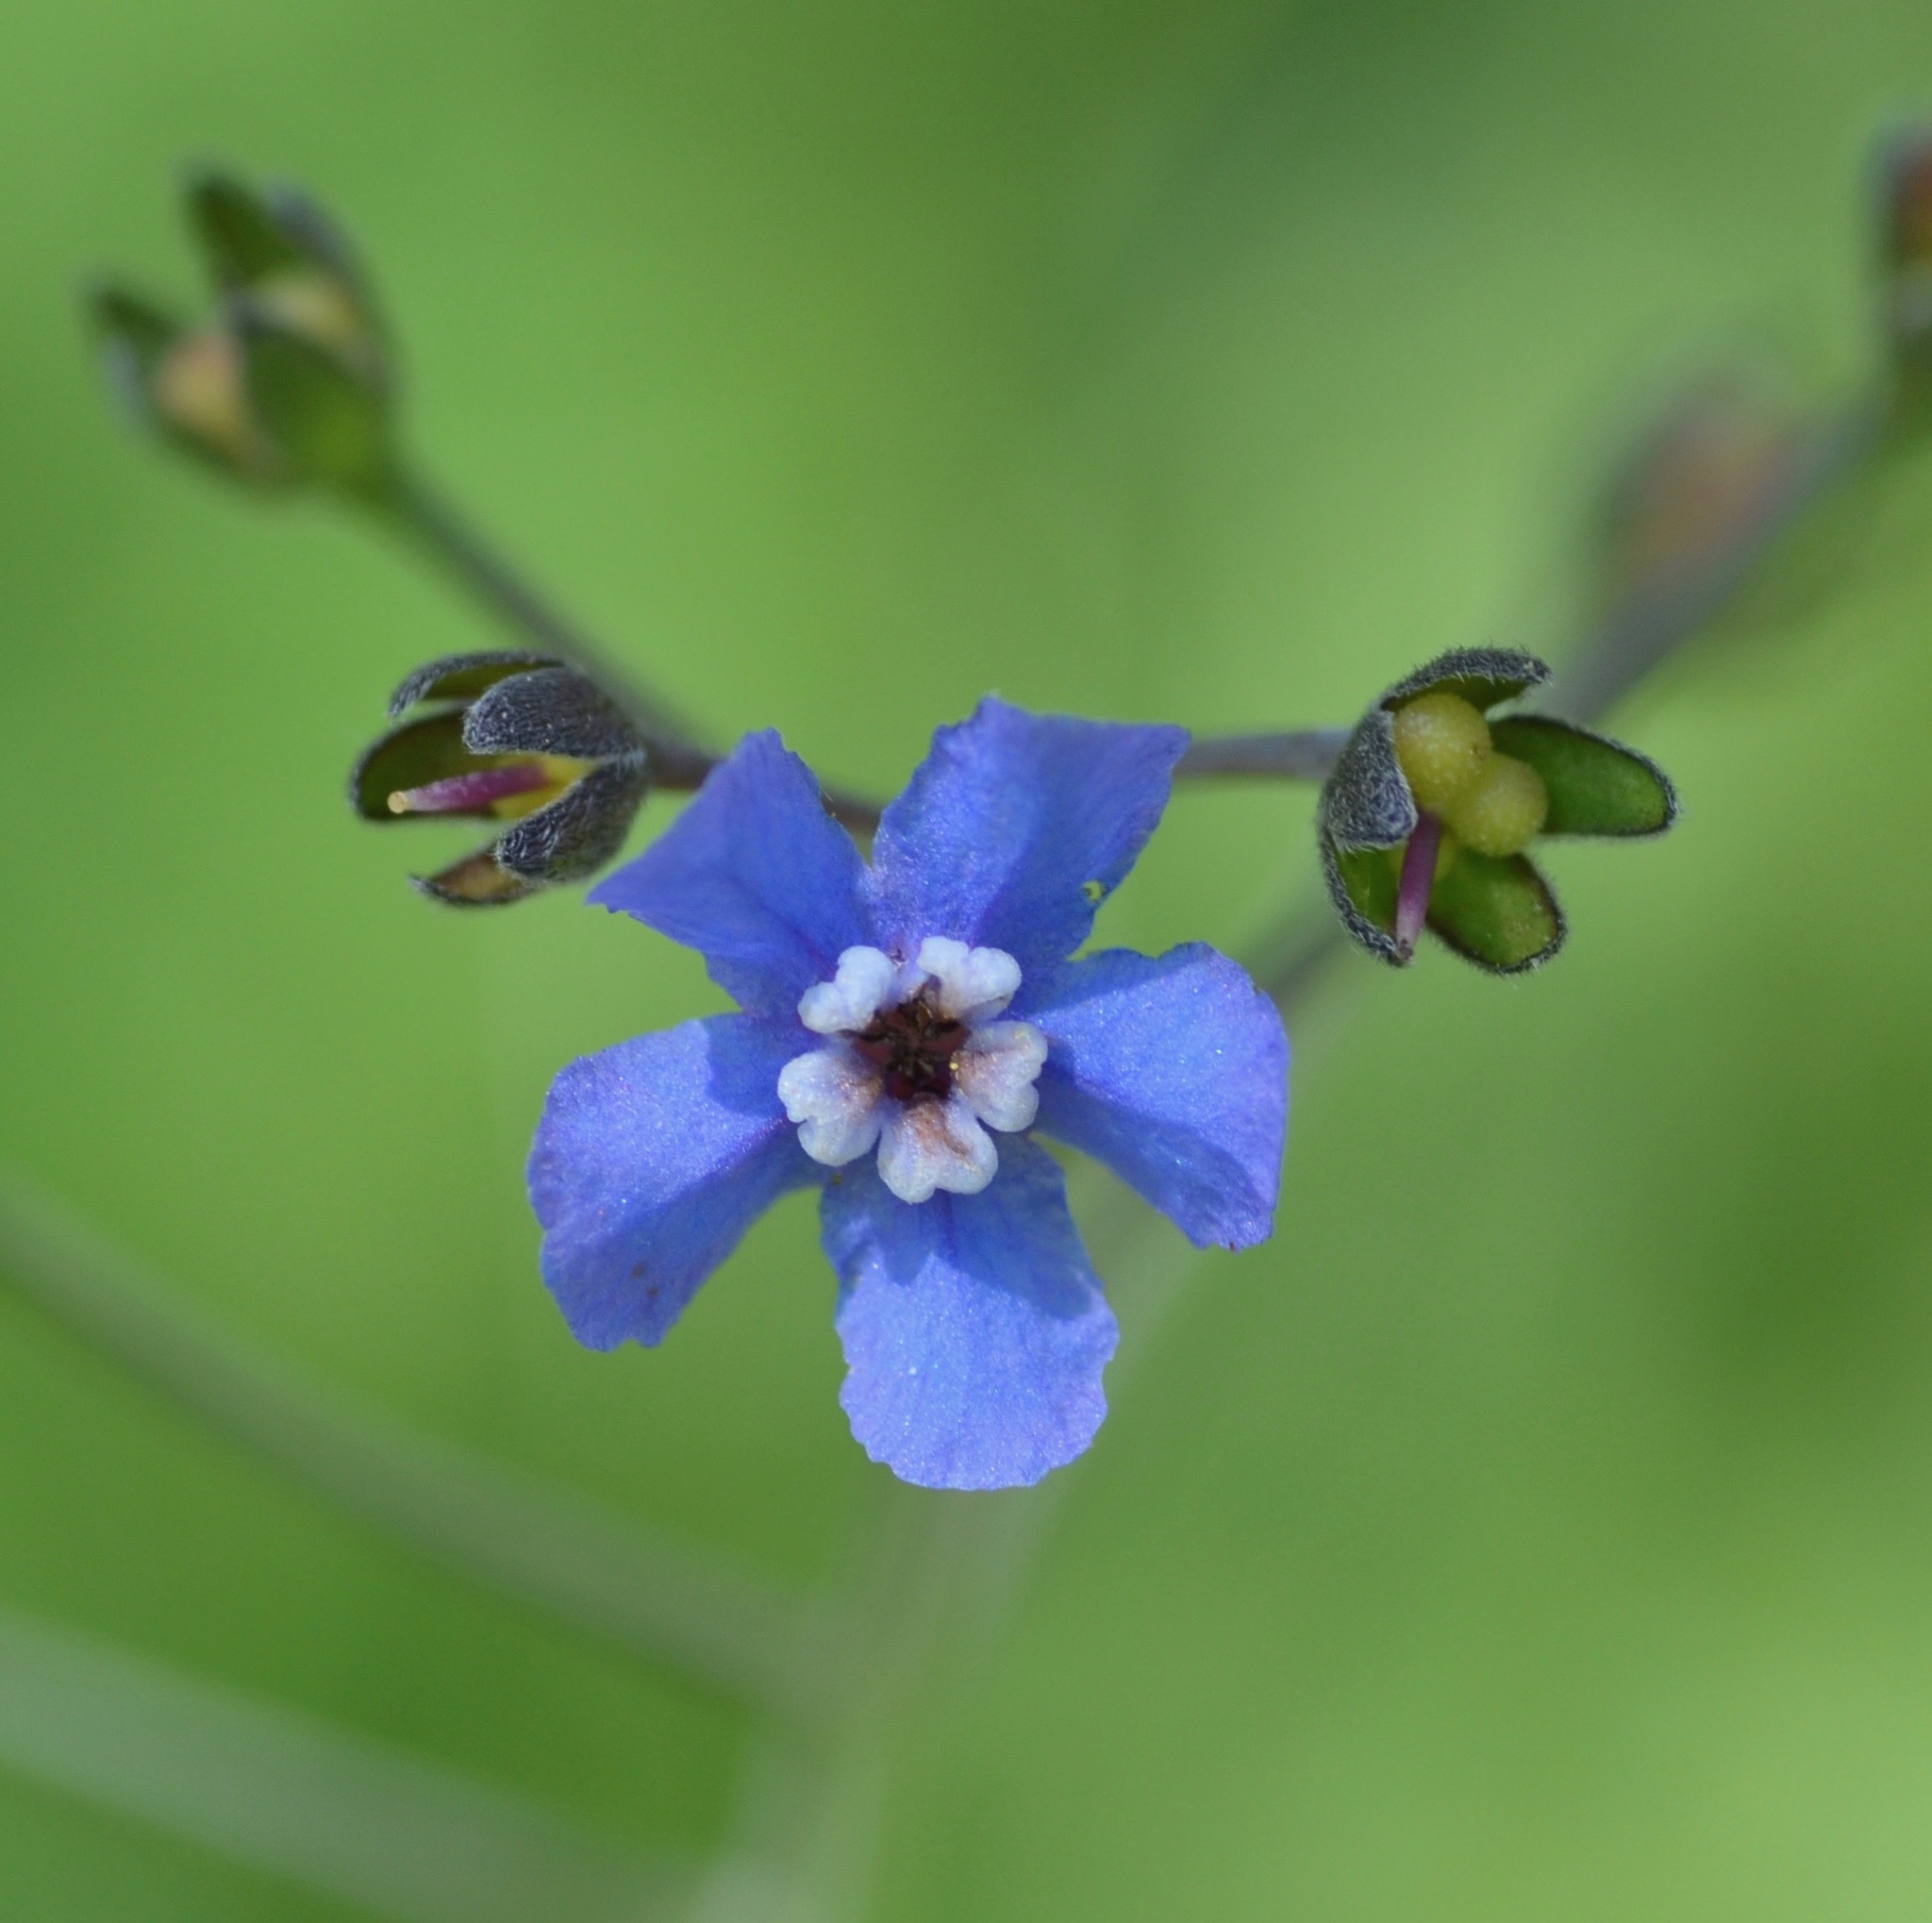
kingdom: Plantae
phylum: Tracheophyta
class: Magnoliopsida
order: Boraginales
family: Boraginaceae
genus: Adelinia
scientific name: Adelinia grande
